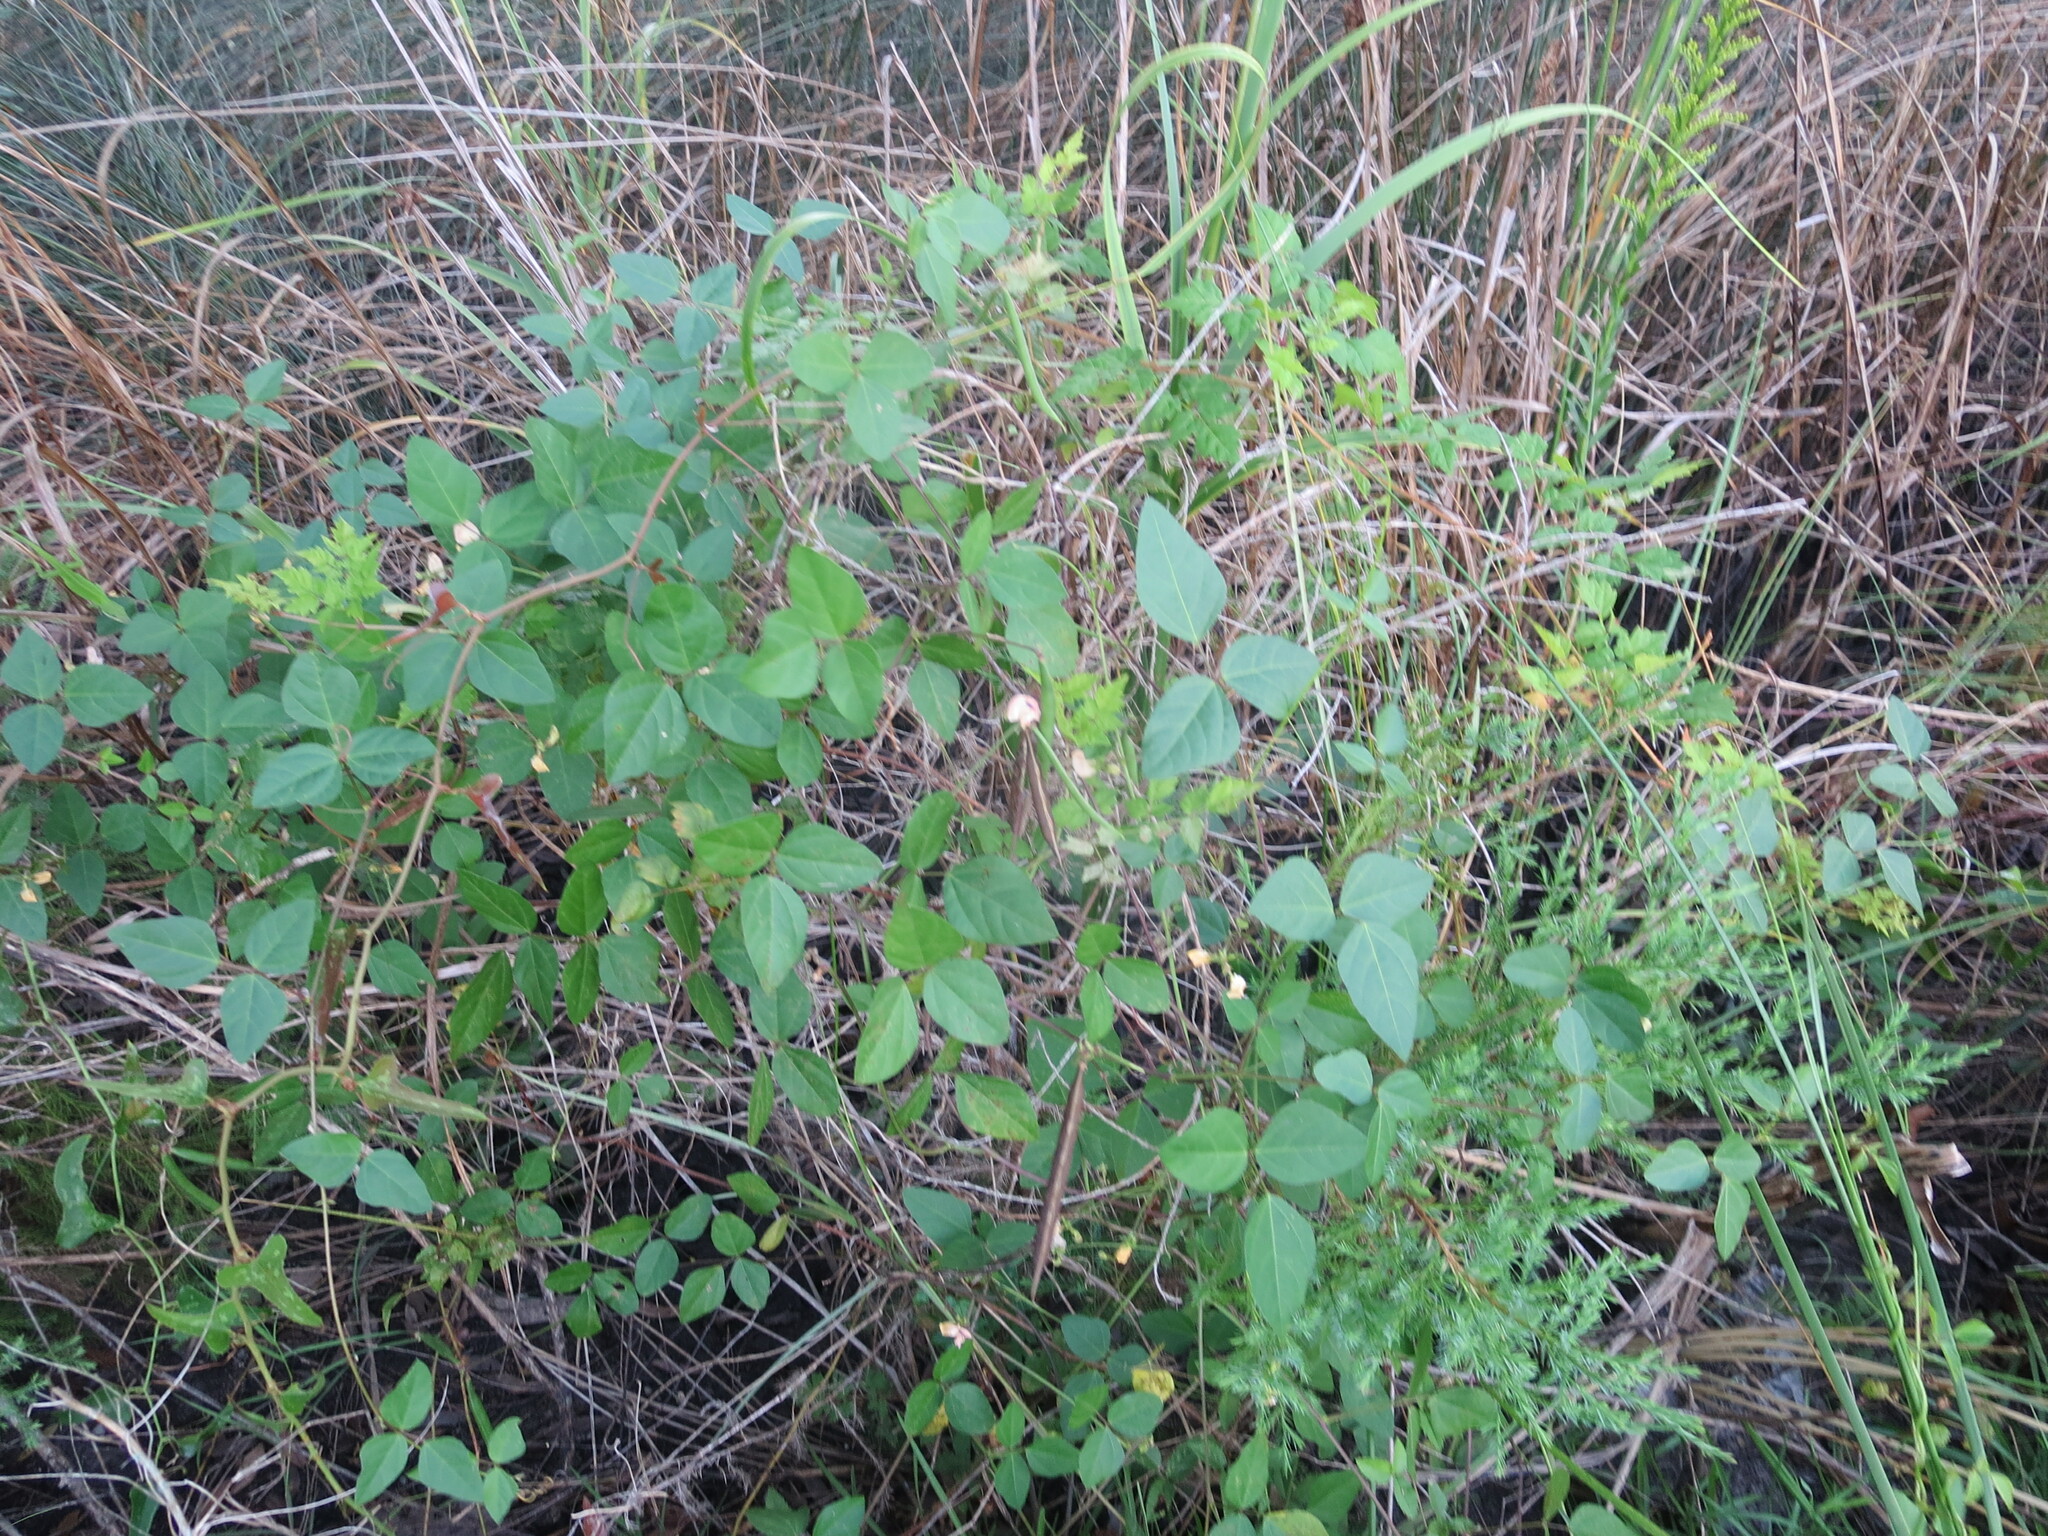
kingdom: Plantae
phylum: Tracheophyta
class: Magnoliopsida
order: Fabales
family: Fabaceae
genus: Strophostyles
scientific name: Strophostyles helvola
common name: Trailing wild bean
